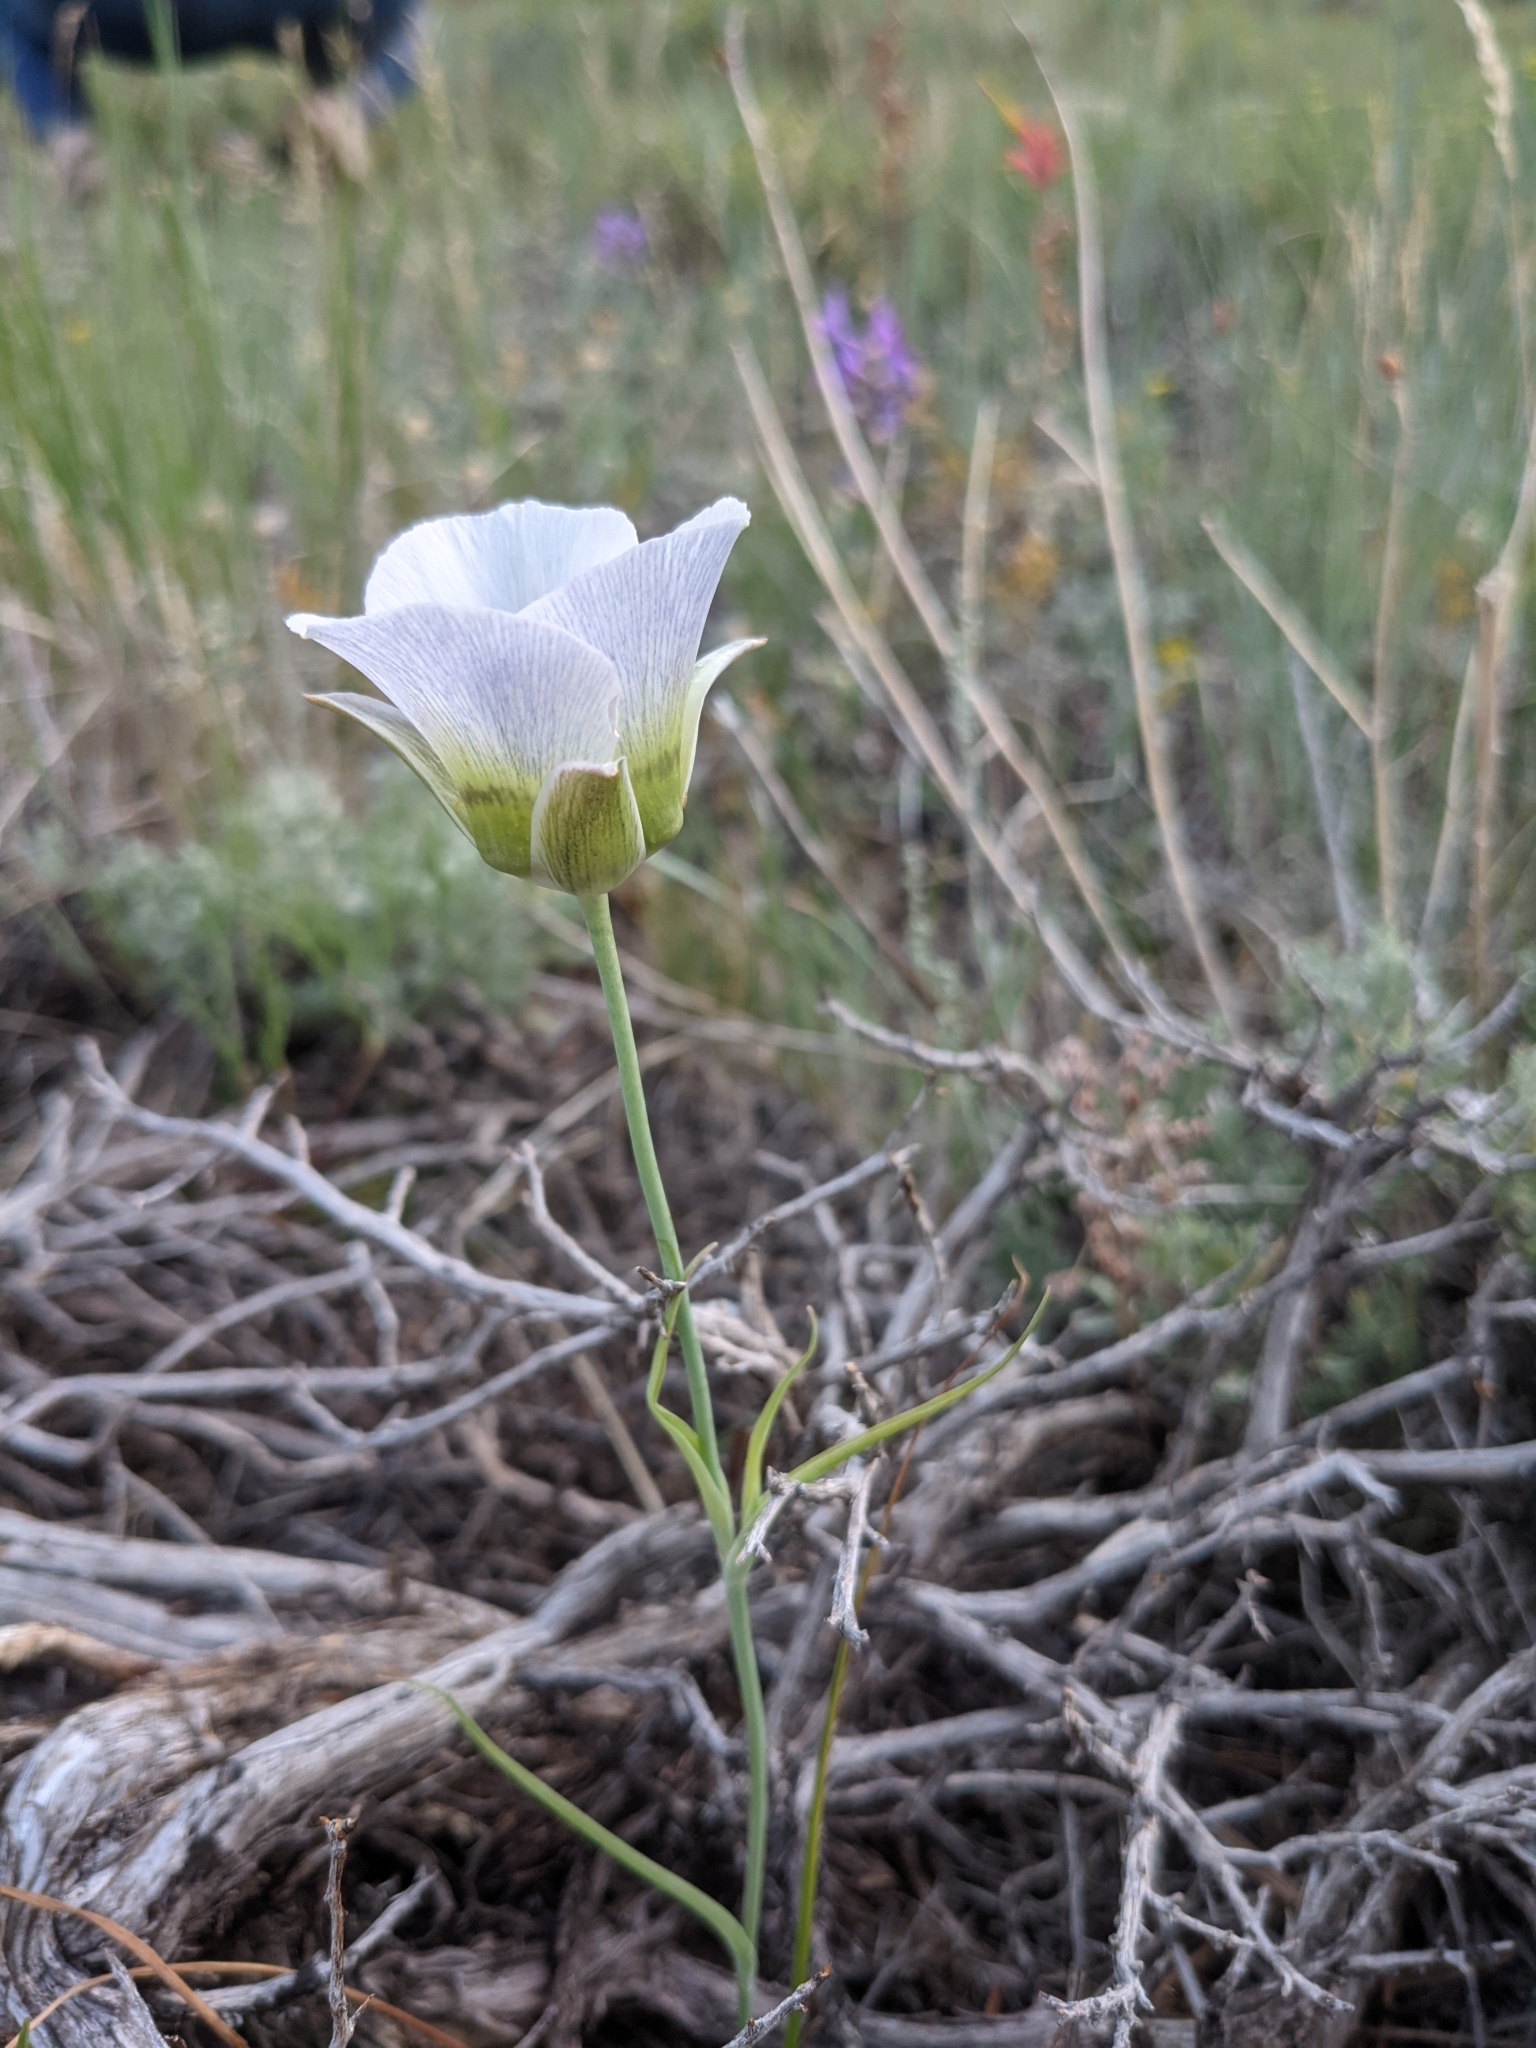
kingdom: Plantae
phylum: Tracheophyta
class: Liliopsida
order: Liliales
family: Liliaceae
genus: Calochortus
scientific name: Calochortus gunnisonii
